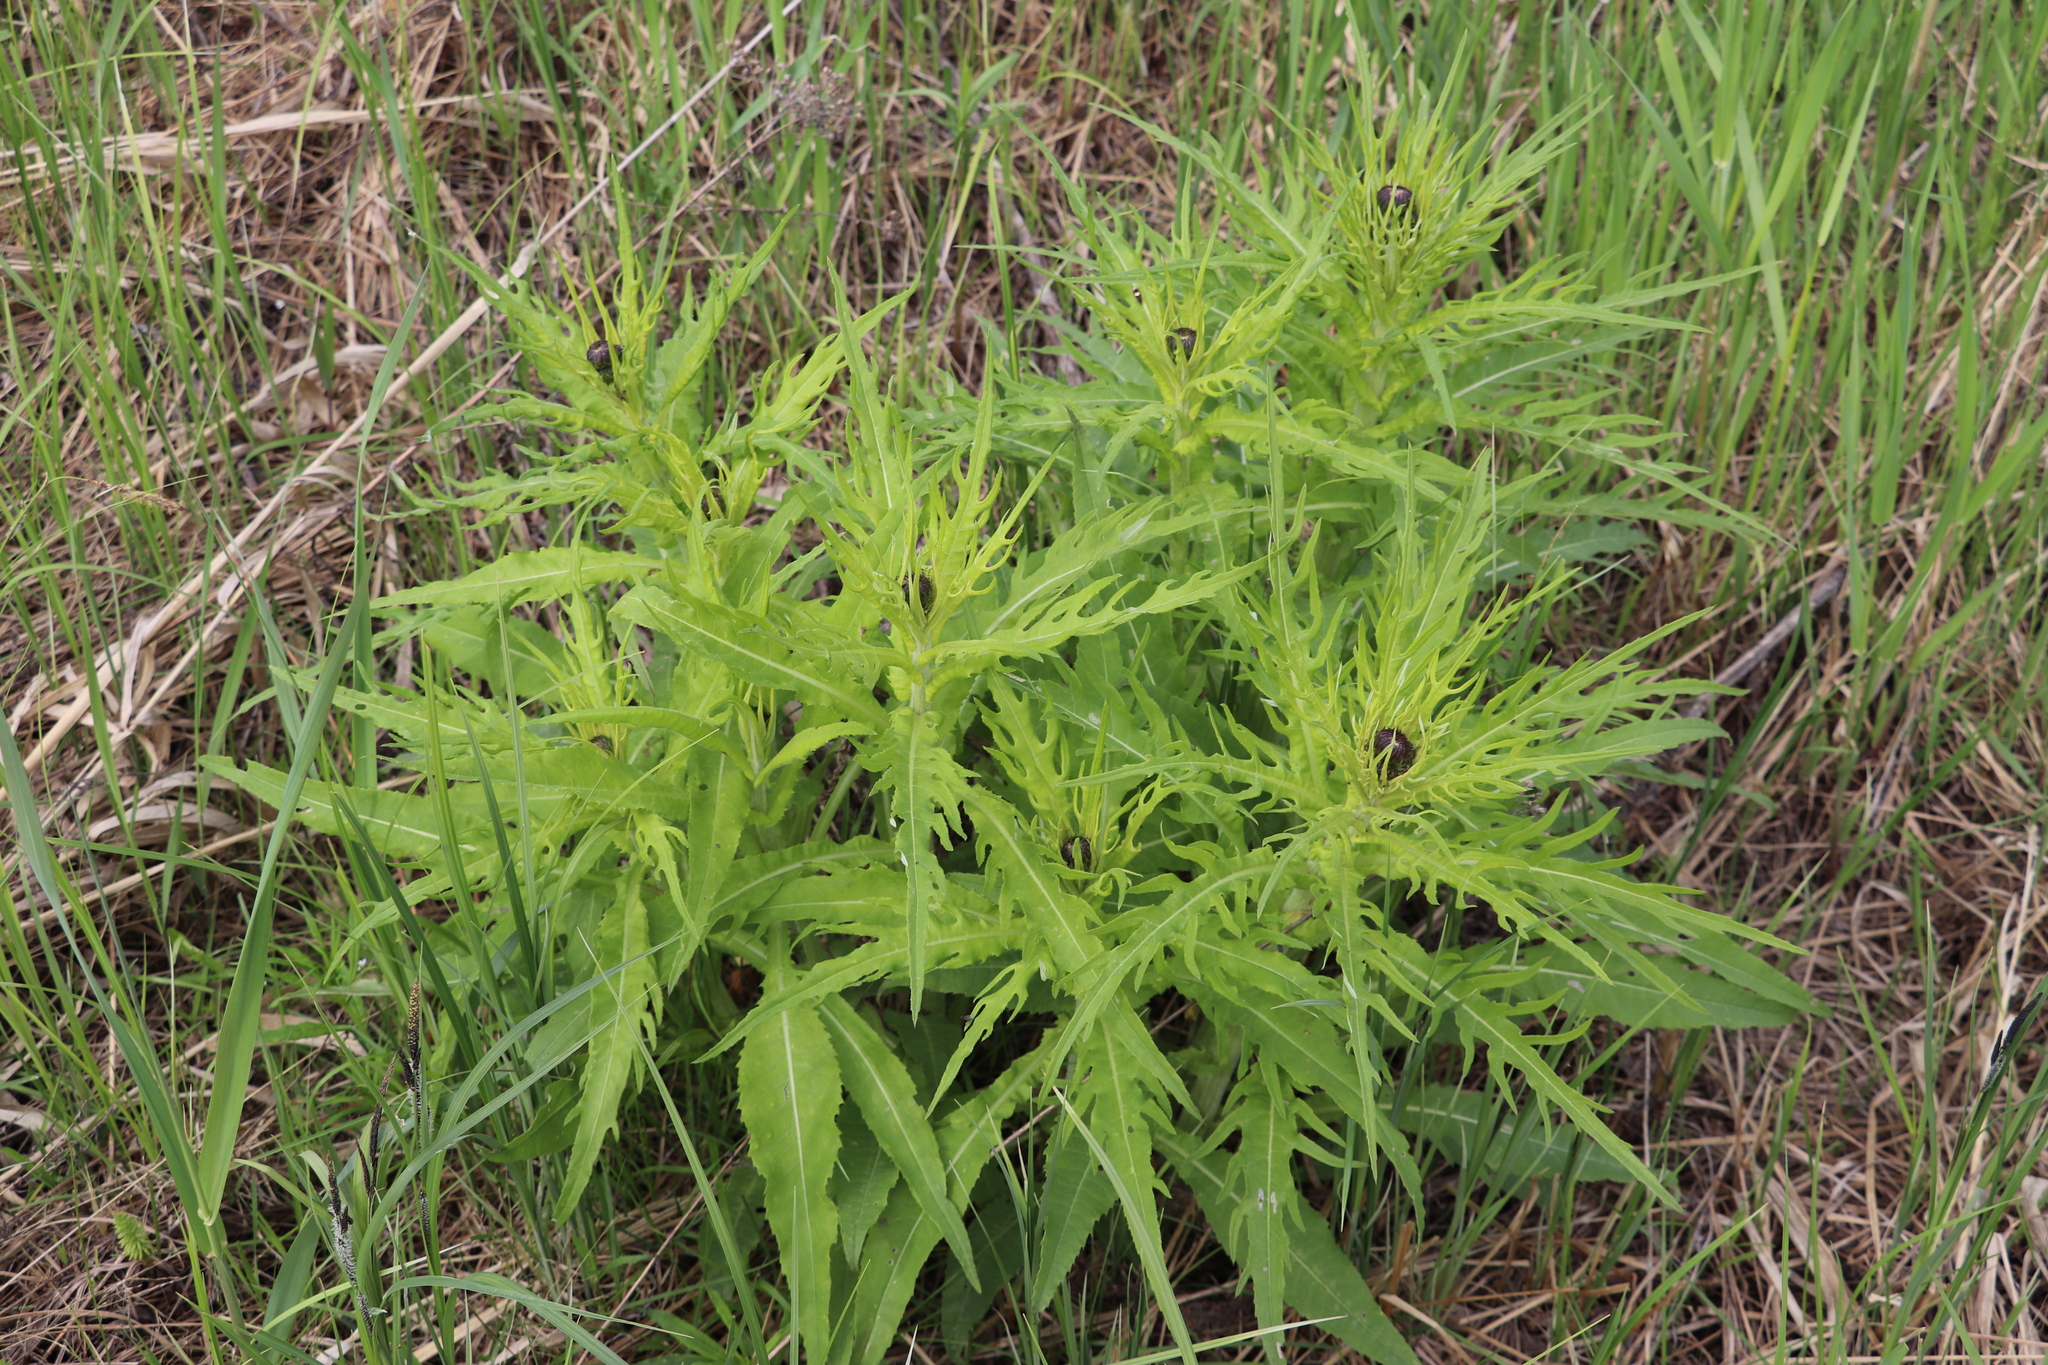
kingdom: Plantae
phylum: Tracheophyta
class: Magnoliopsida
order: Asterales
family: Asteraceae
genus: Cirsium
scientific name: Cirsium heterophyllum
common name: Melancholy thistle
